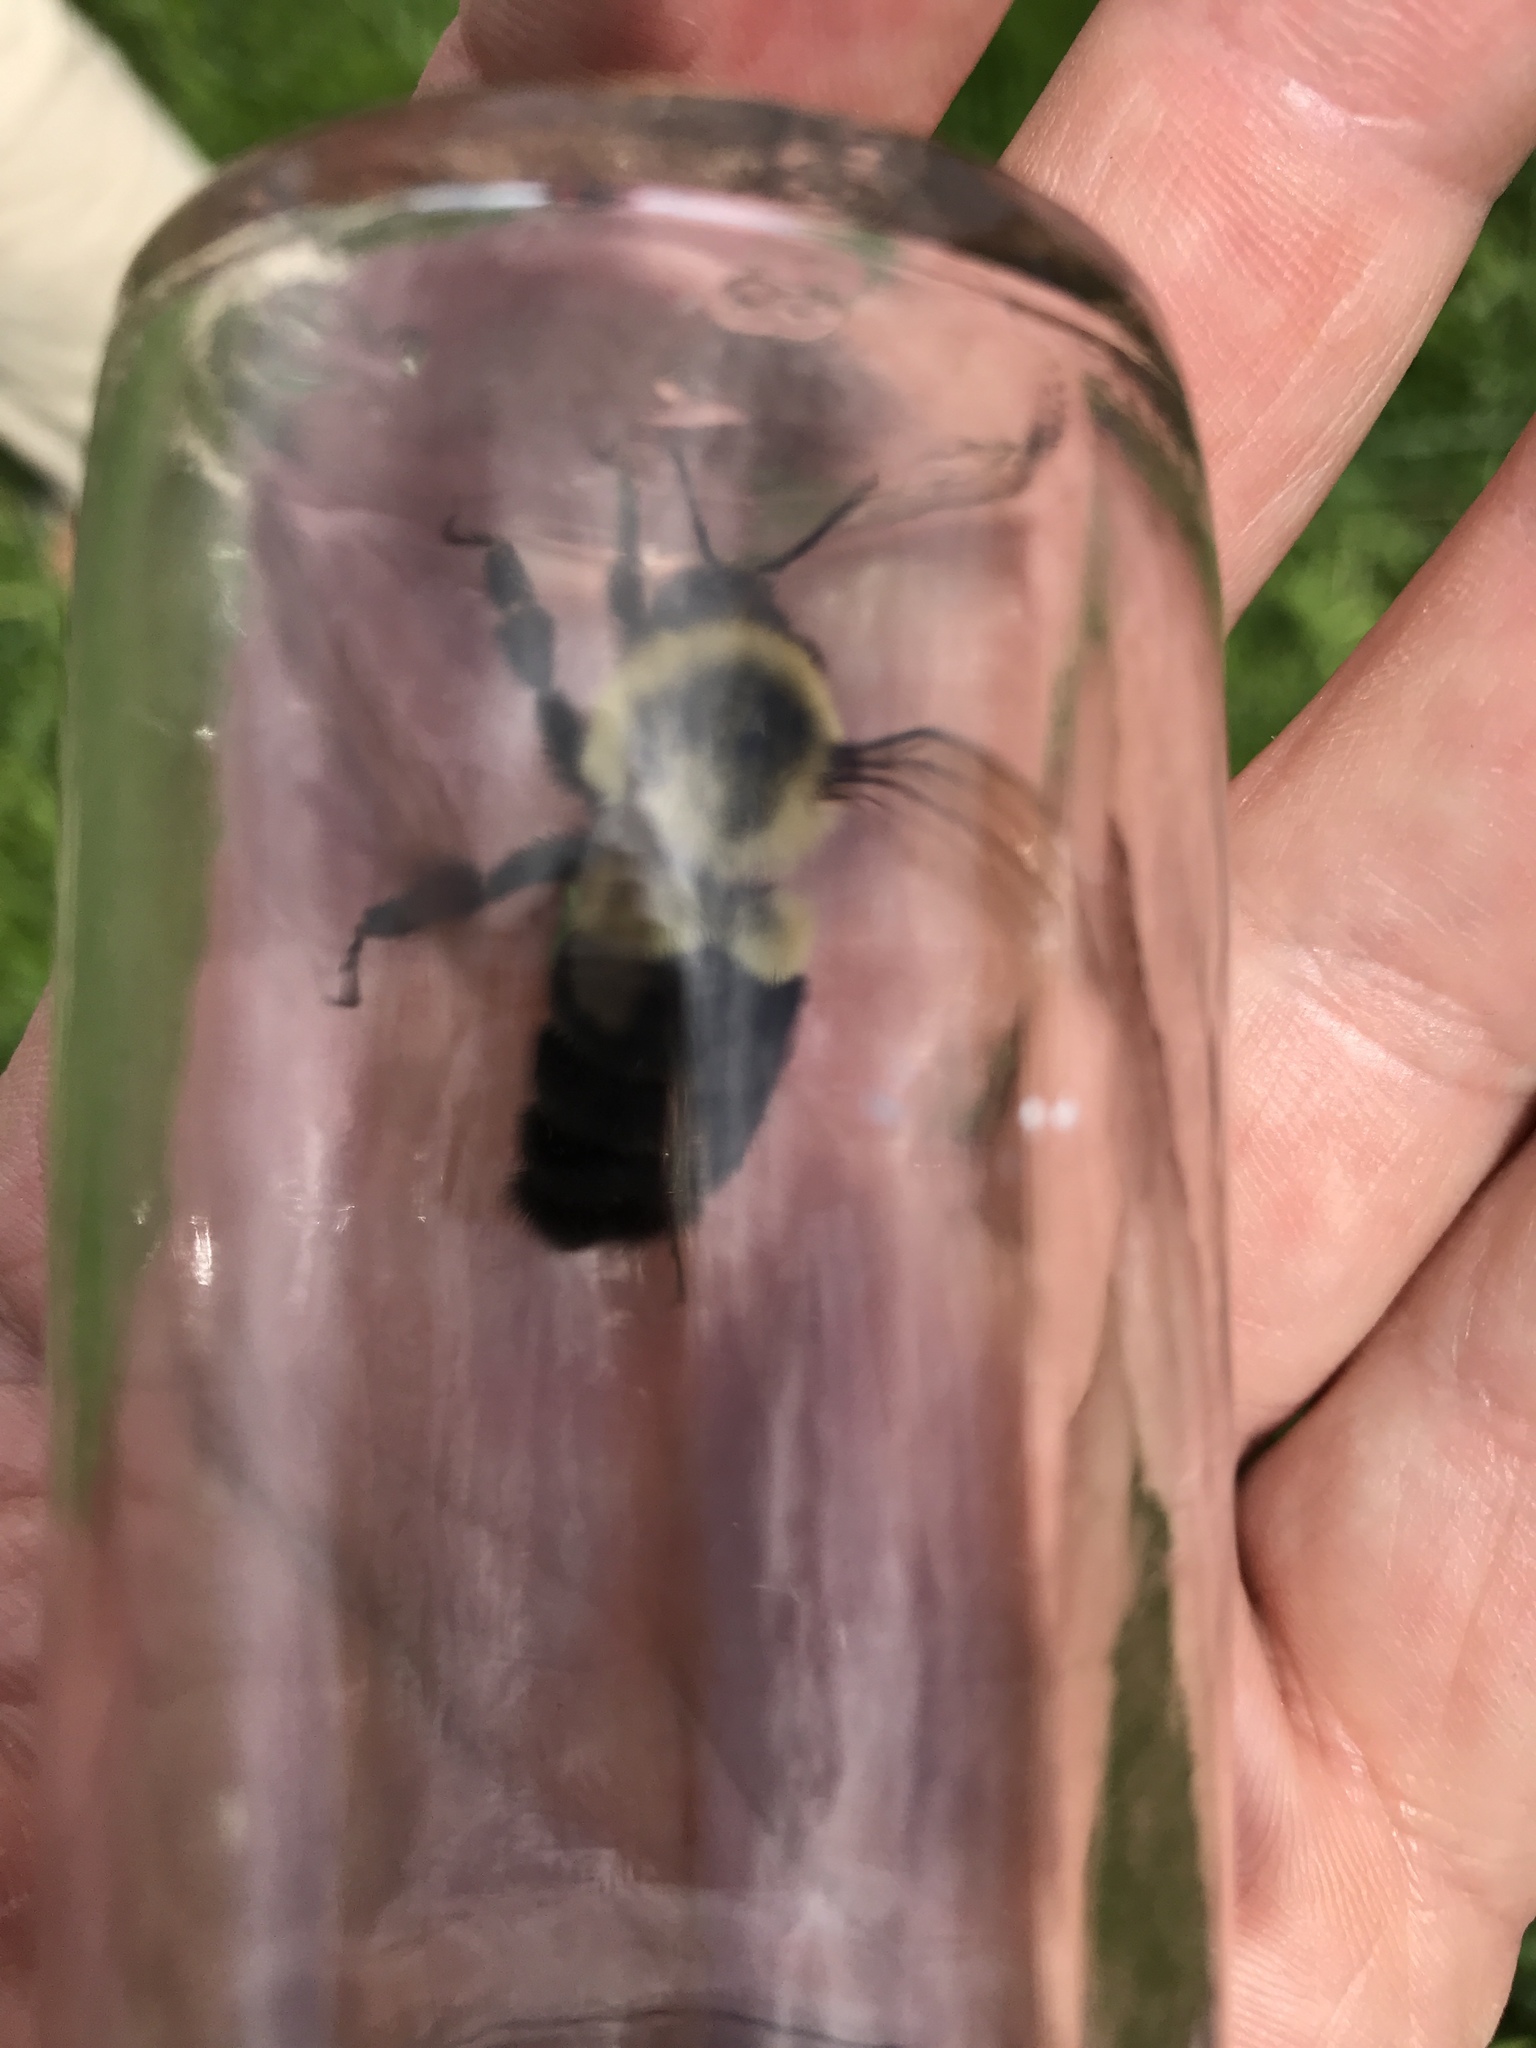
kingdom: Animalia
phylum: Arthropoda
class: Insecta
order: Hymenoptera
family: Apidae
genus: Bombus
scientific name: Bombus impatiens
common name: Common eastern bumble bee
